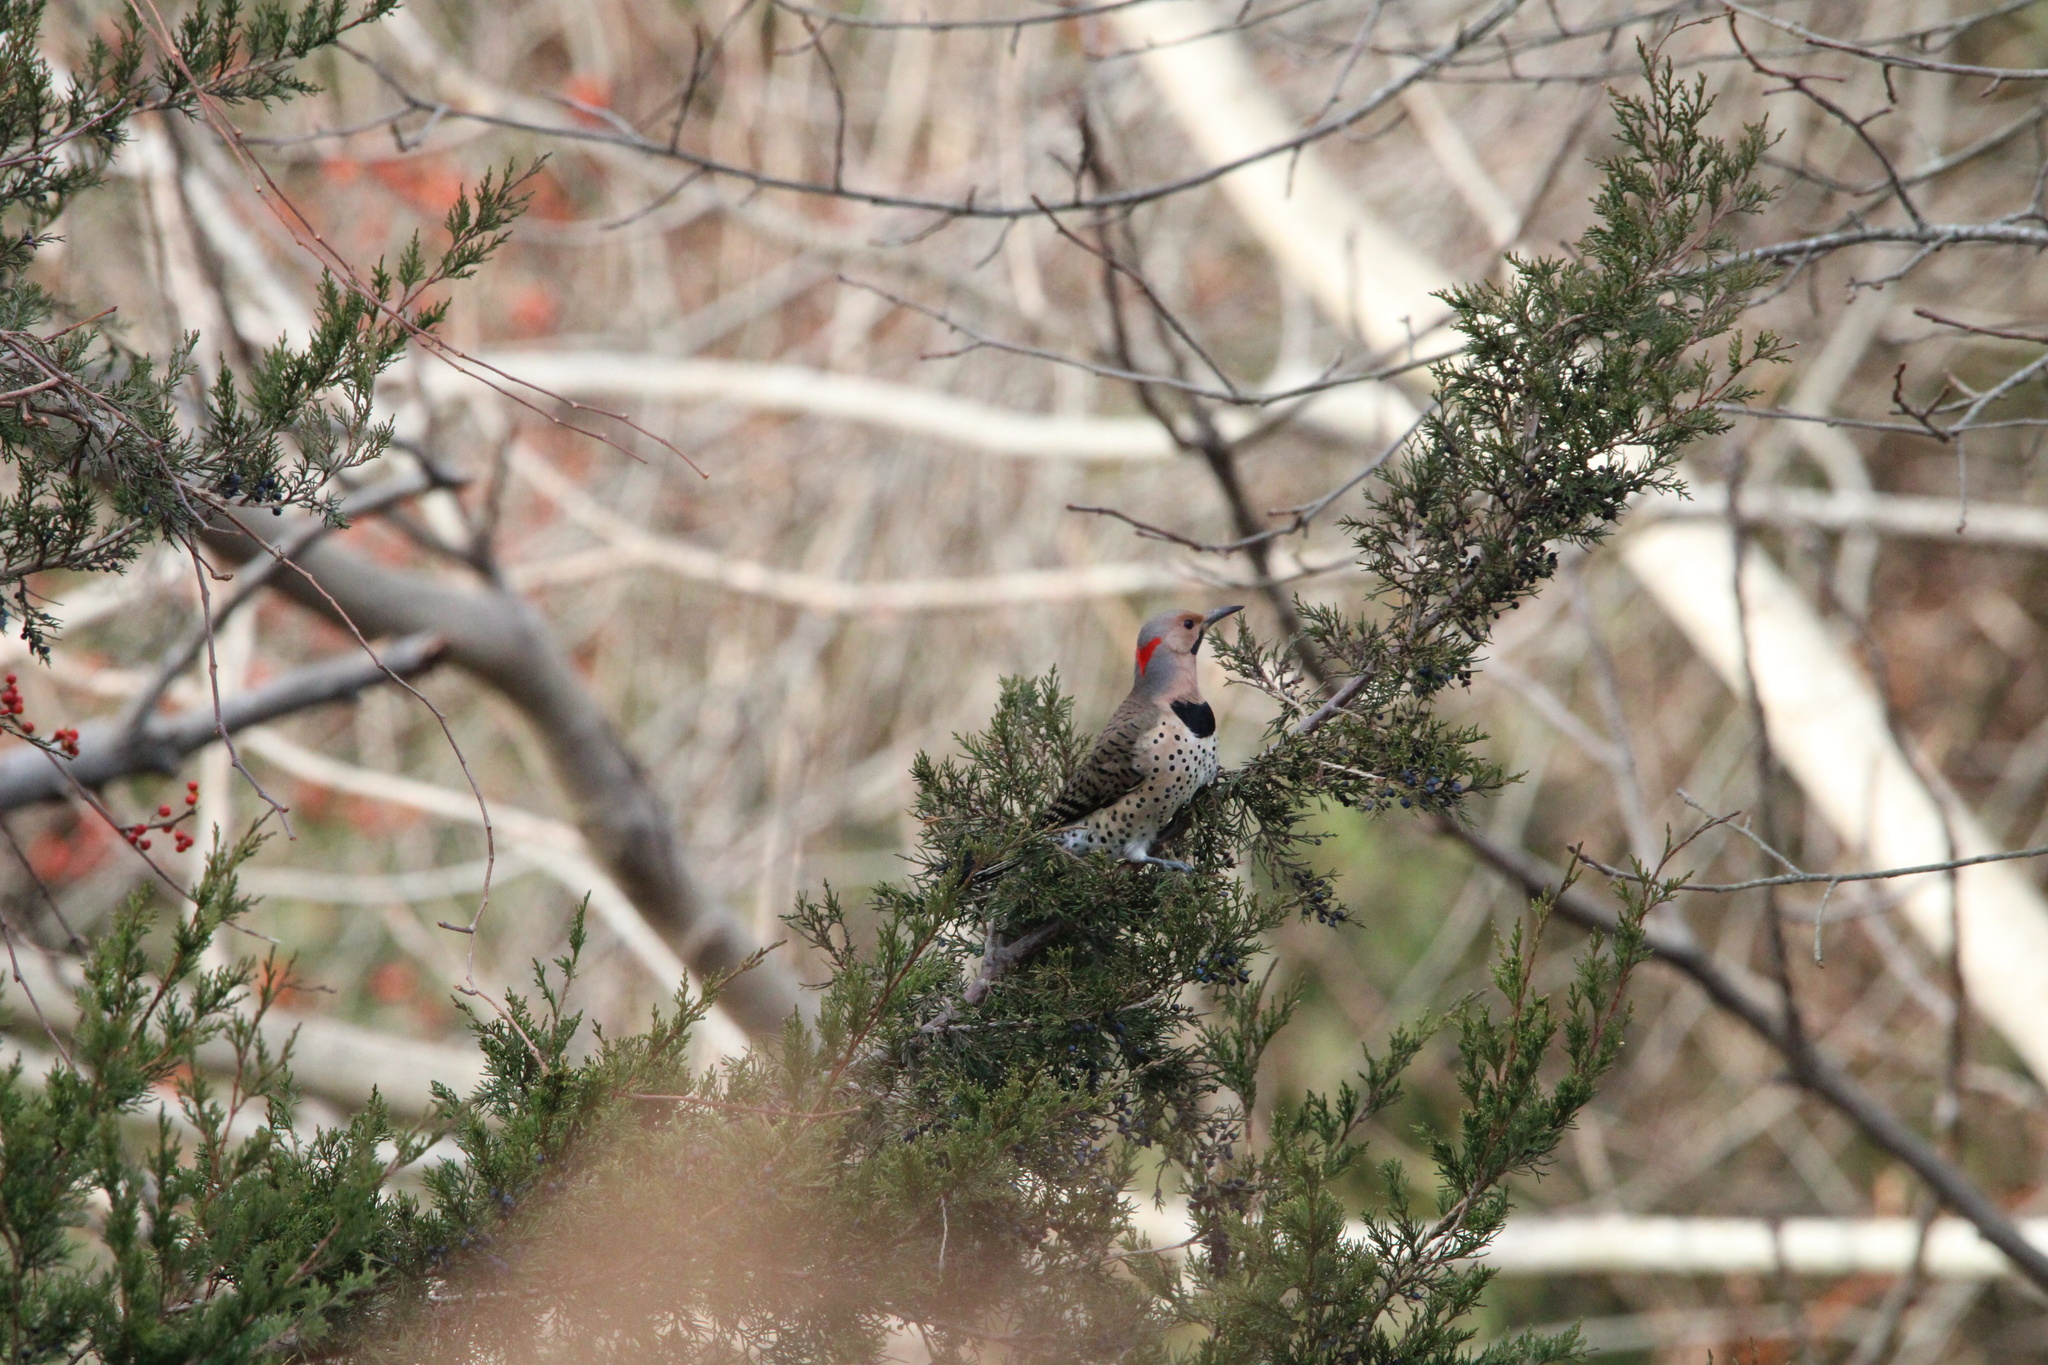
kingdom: Animalia
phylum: Chordata
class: Aves
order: Piciformes
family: Picidae
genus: Colaptes
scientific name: Colaptes auratus
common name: Northern flicker
